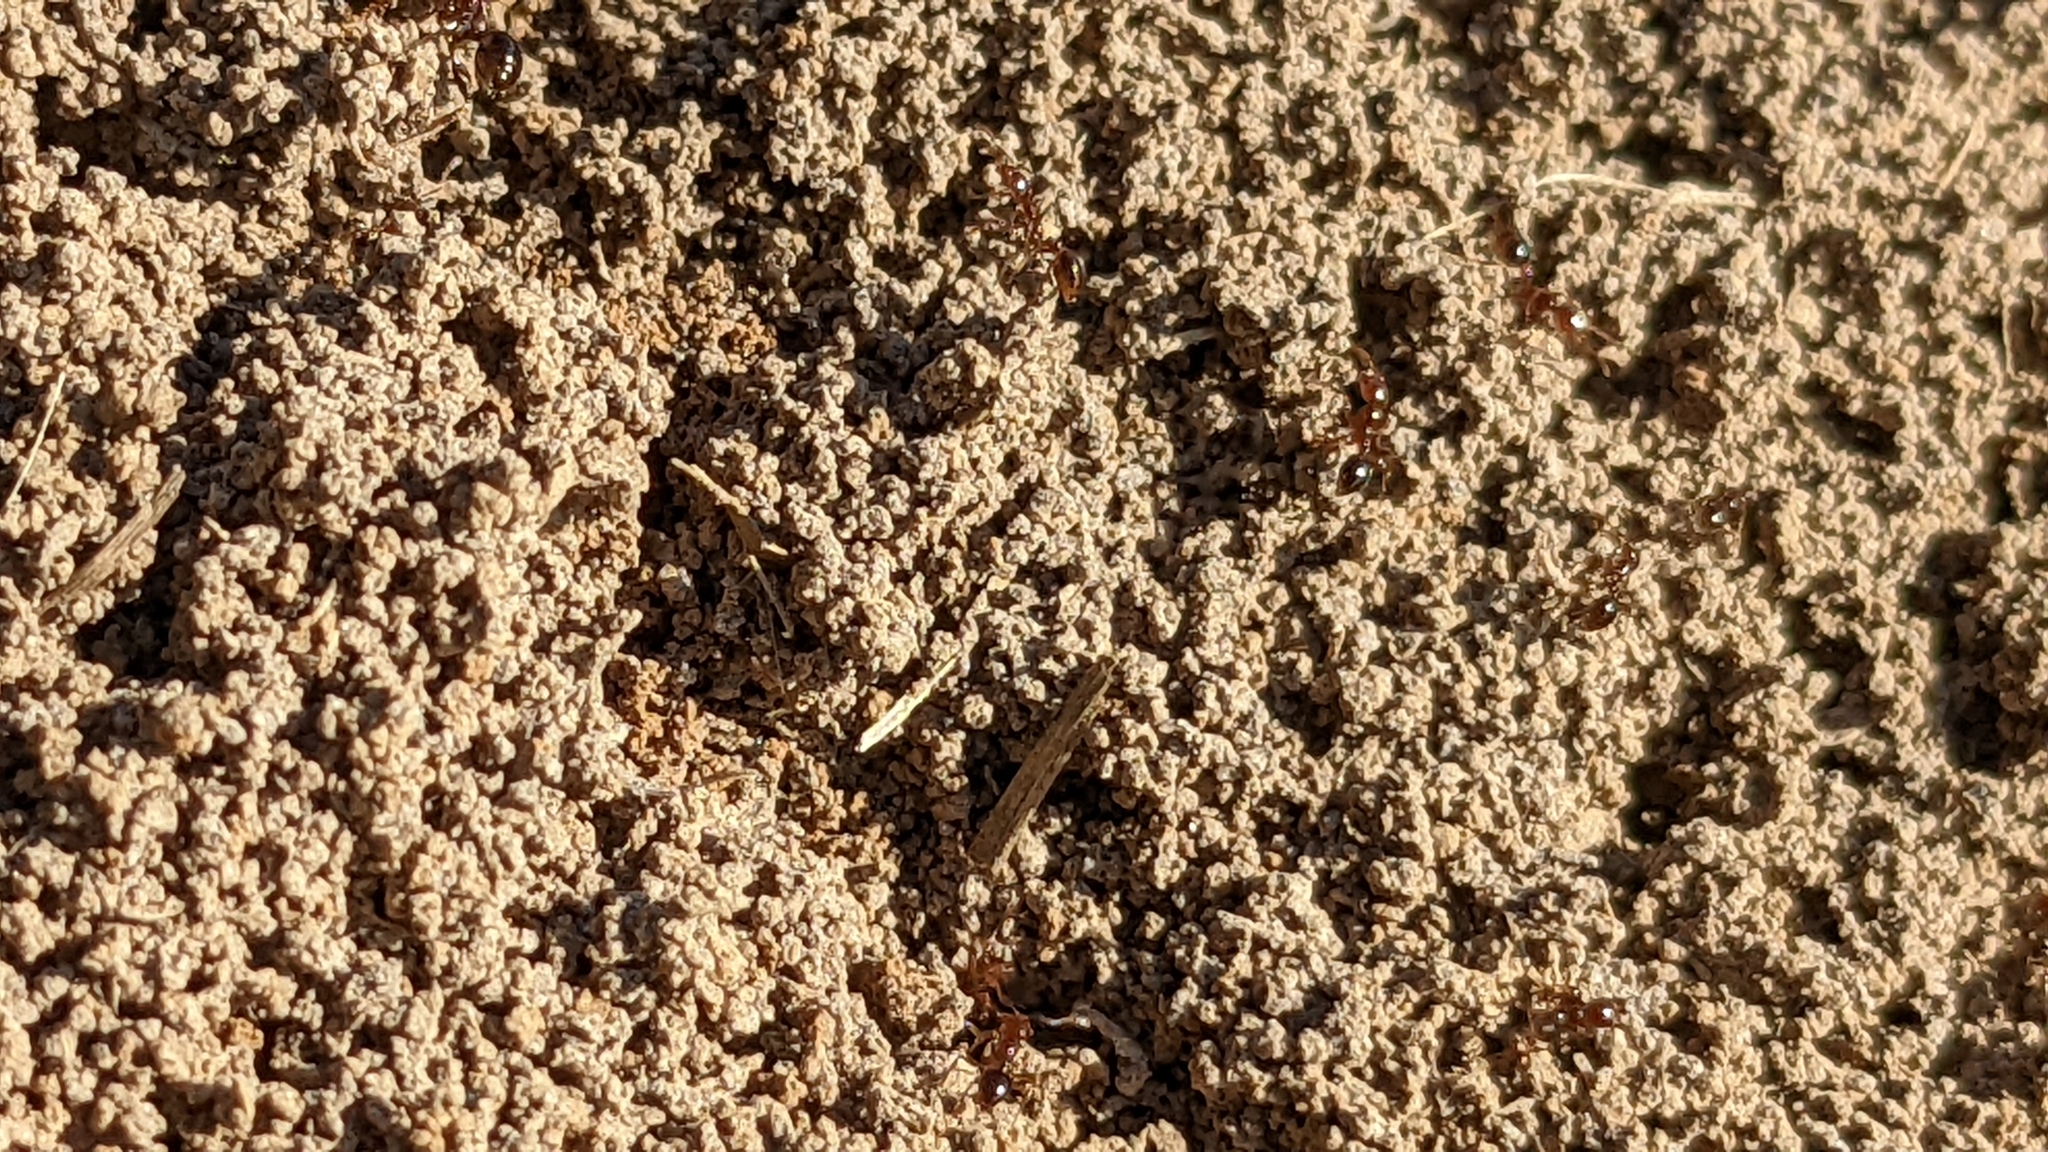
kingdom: Animalia
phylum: Arthropoda
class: Insecta
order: Hymenoptera
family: Formicidae
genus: Solenopsis
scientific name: Solenopsis invicta
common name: Red imported fire ant
